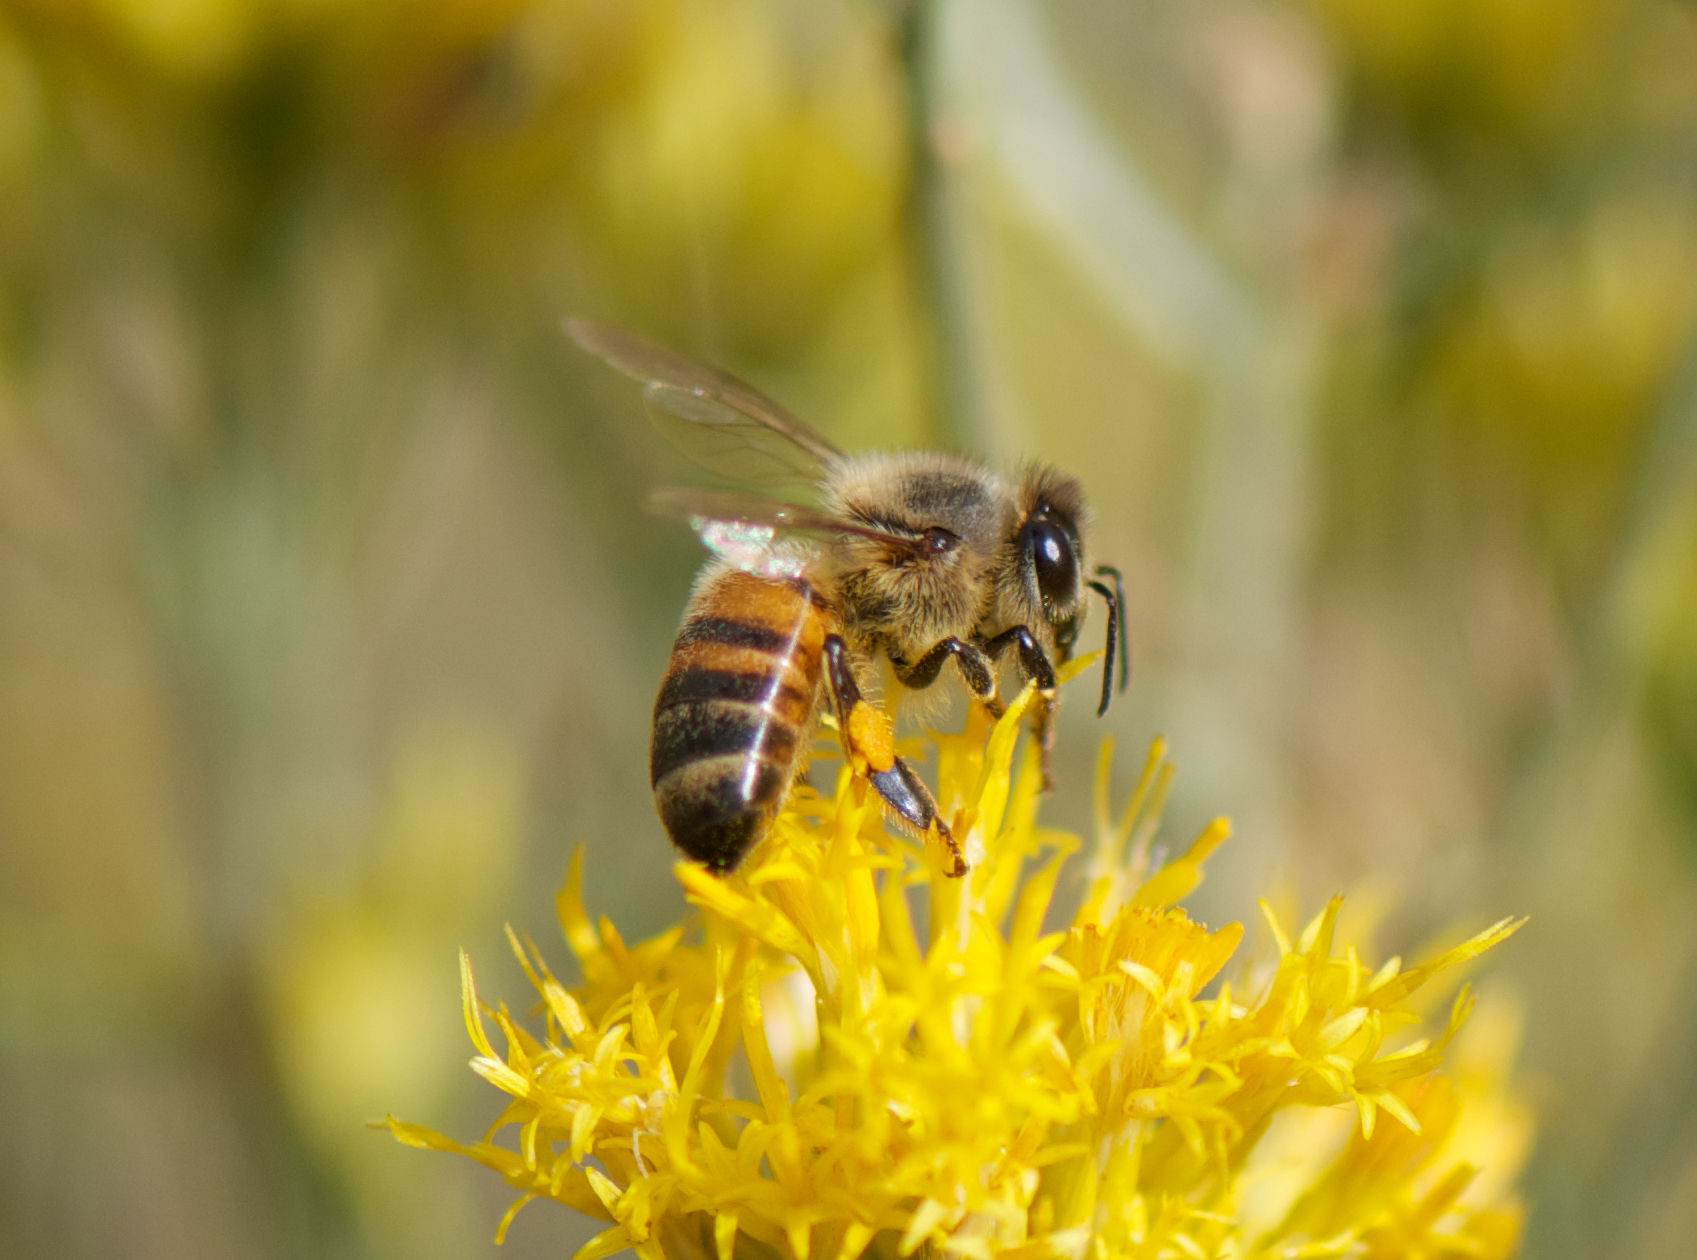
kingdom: Animalia
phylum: Arthropoda
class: Insecta
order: Hymenoptera
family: Apidae
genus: Apis
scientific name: Apis mellifera
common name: Honey bee
